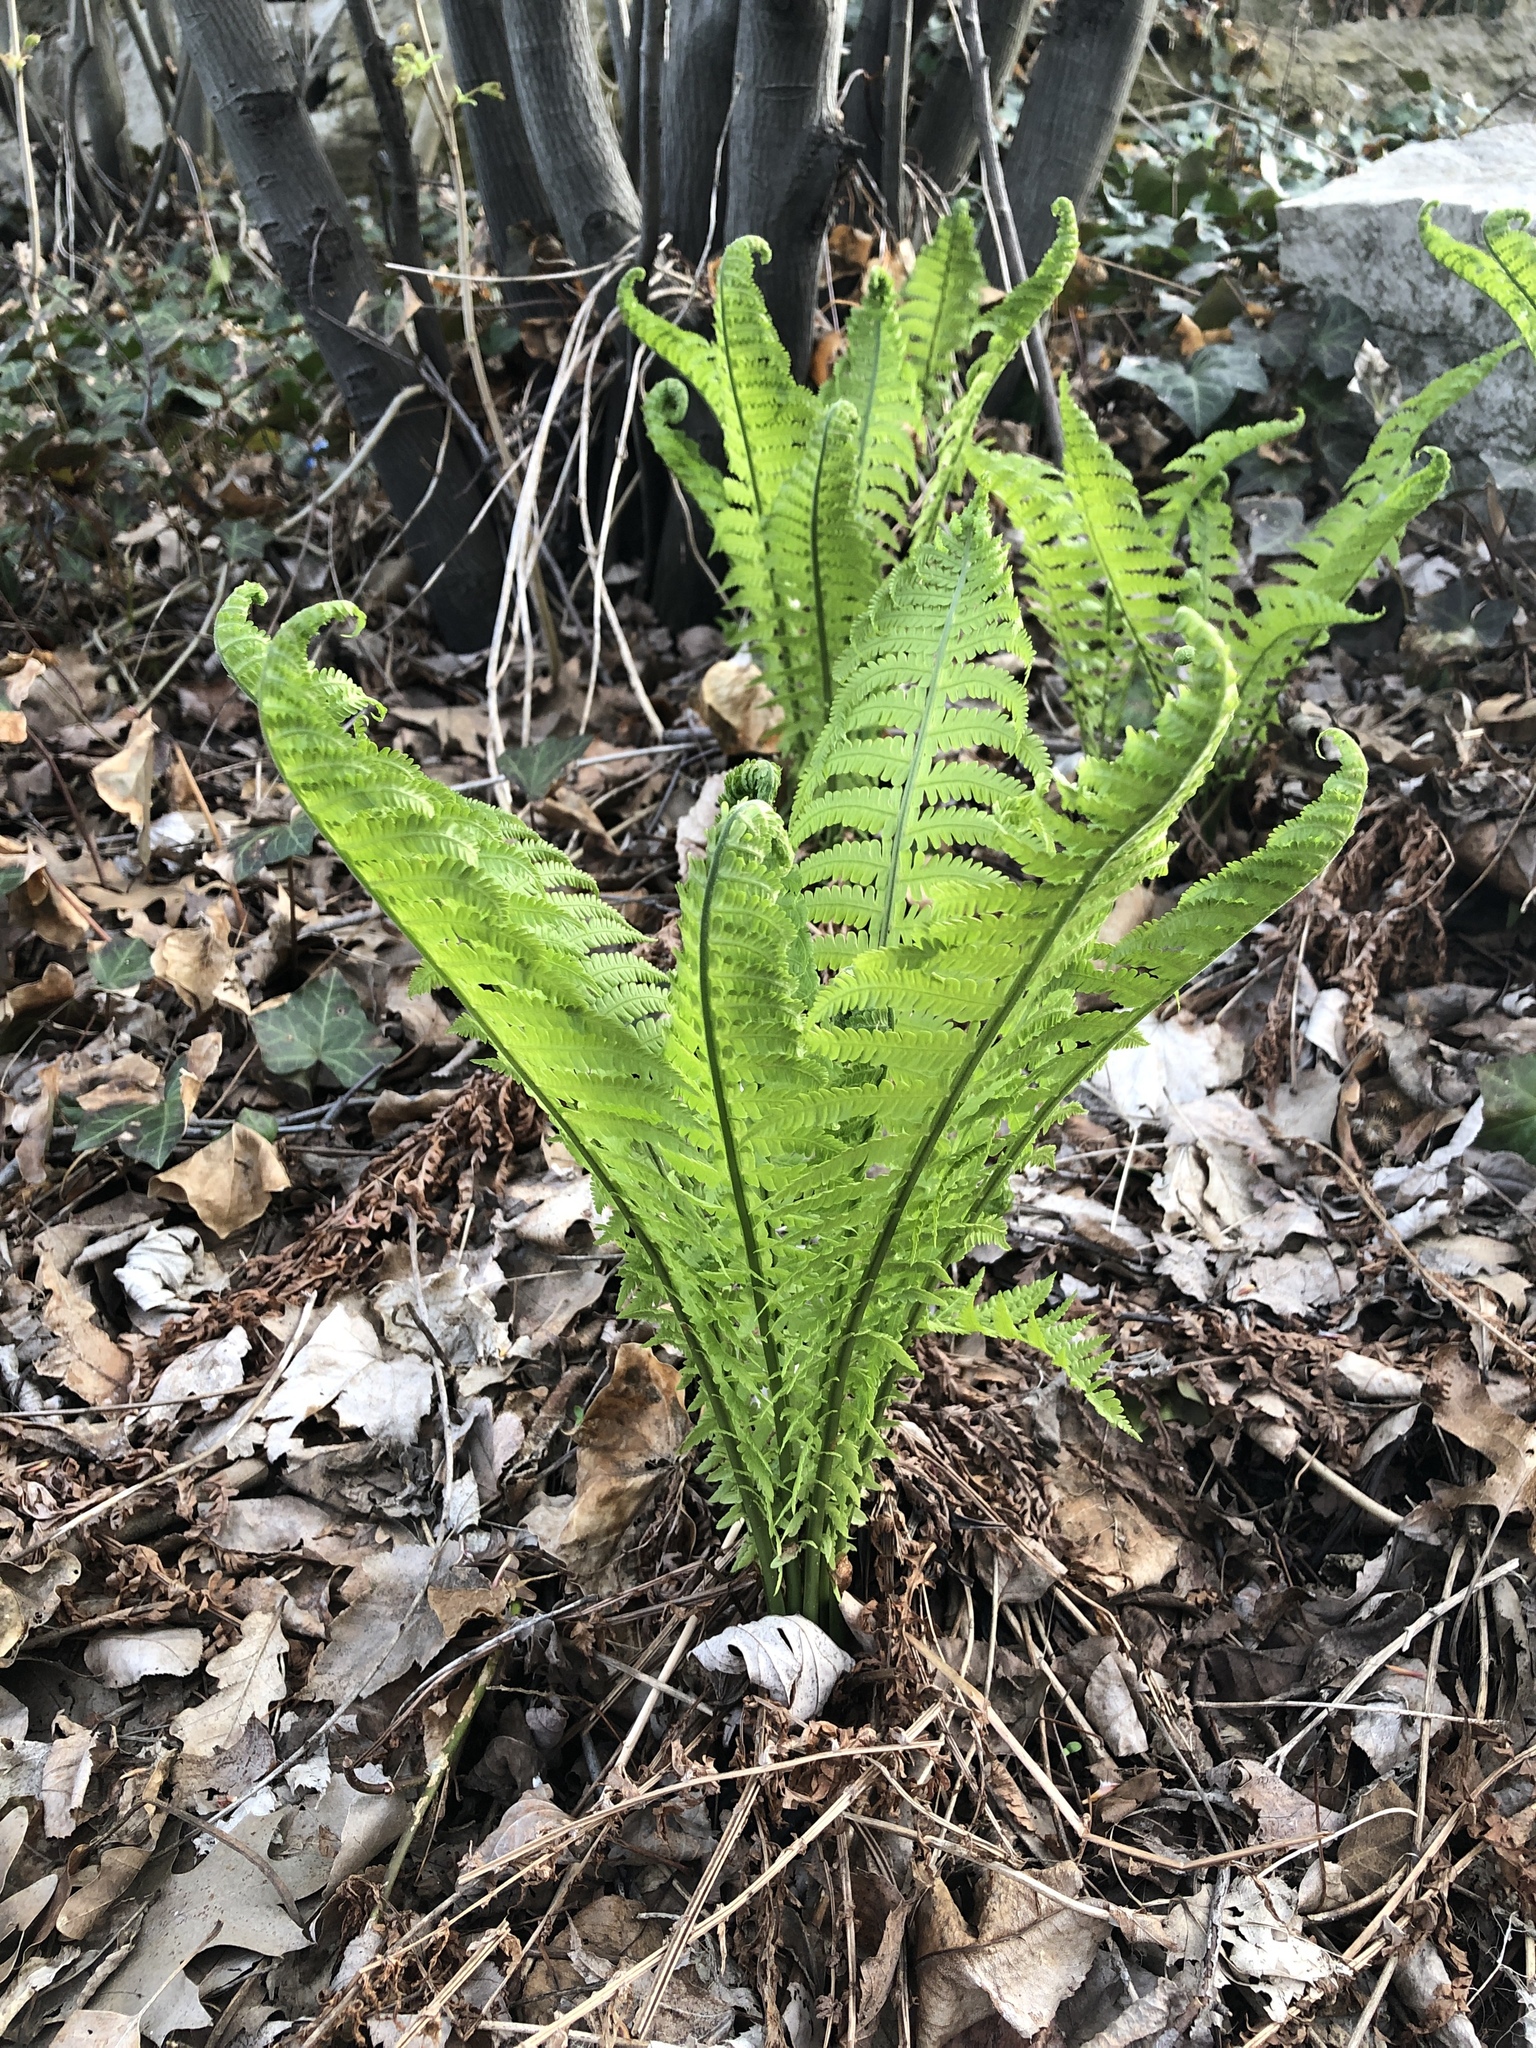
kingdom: Plantae
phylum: Tracheophyta
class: Polypodiopsida
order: Polypodiales
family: Onocleaceae
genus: Matteuccia
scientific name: Matteuccia struthiopteris
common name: Ostrich fern
